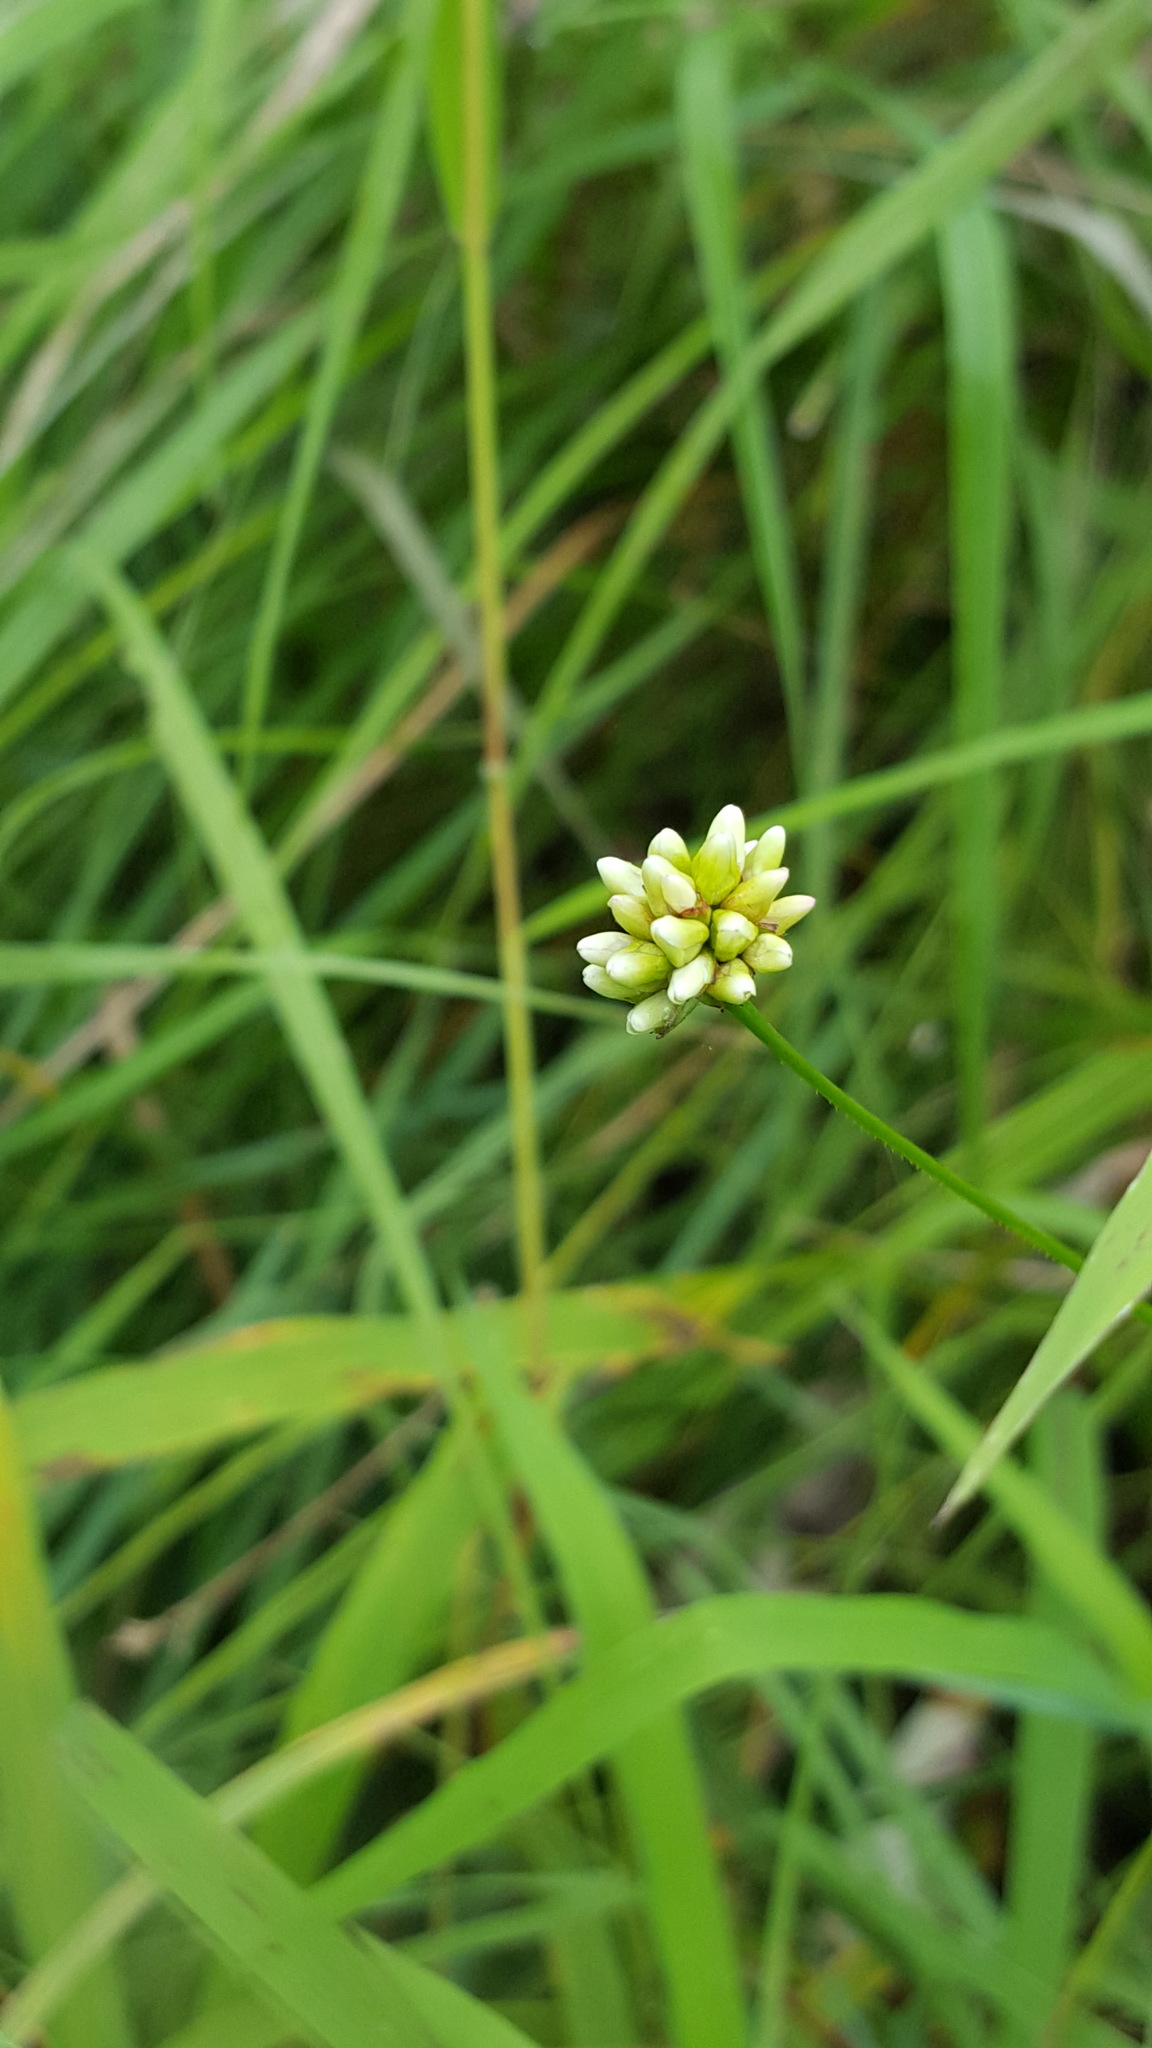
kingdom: Plantae
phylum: Tracheophyta
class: Magnoliopsida
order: Caryophyllales
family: Polygonaceae
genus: Persicaria
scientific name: Persicaria sagittata
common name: American tearthumb
